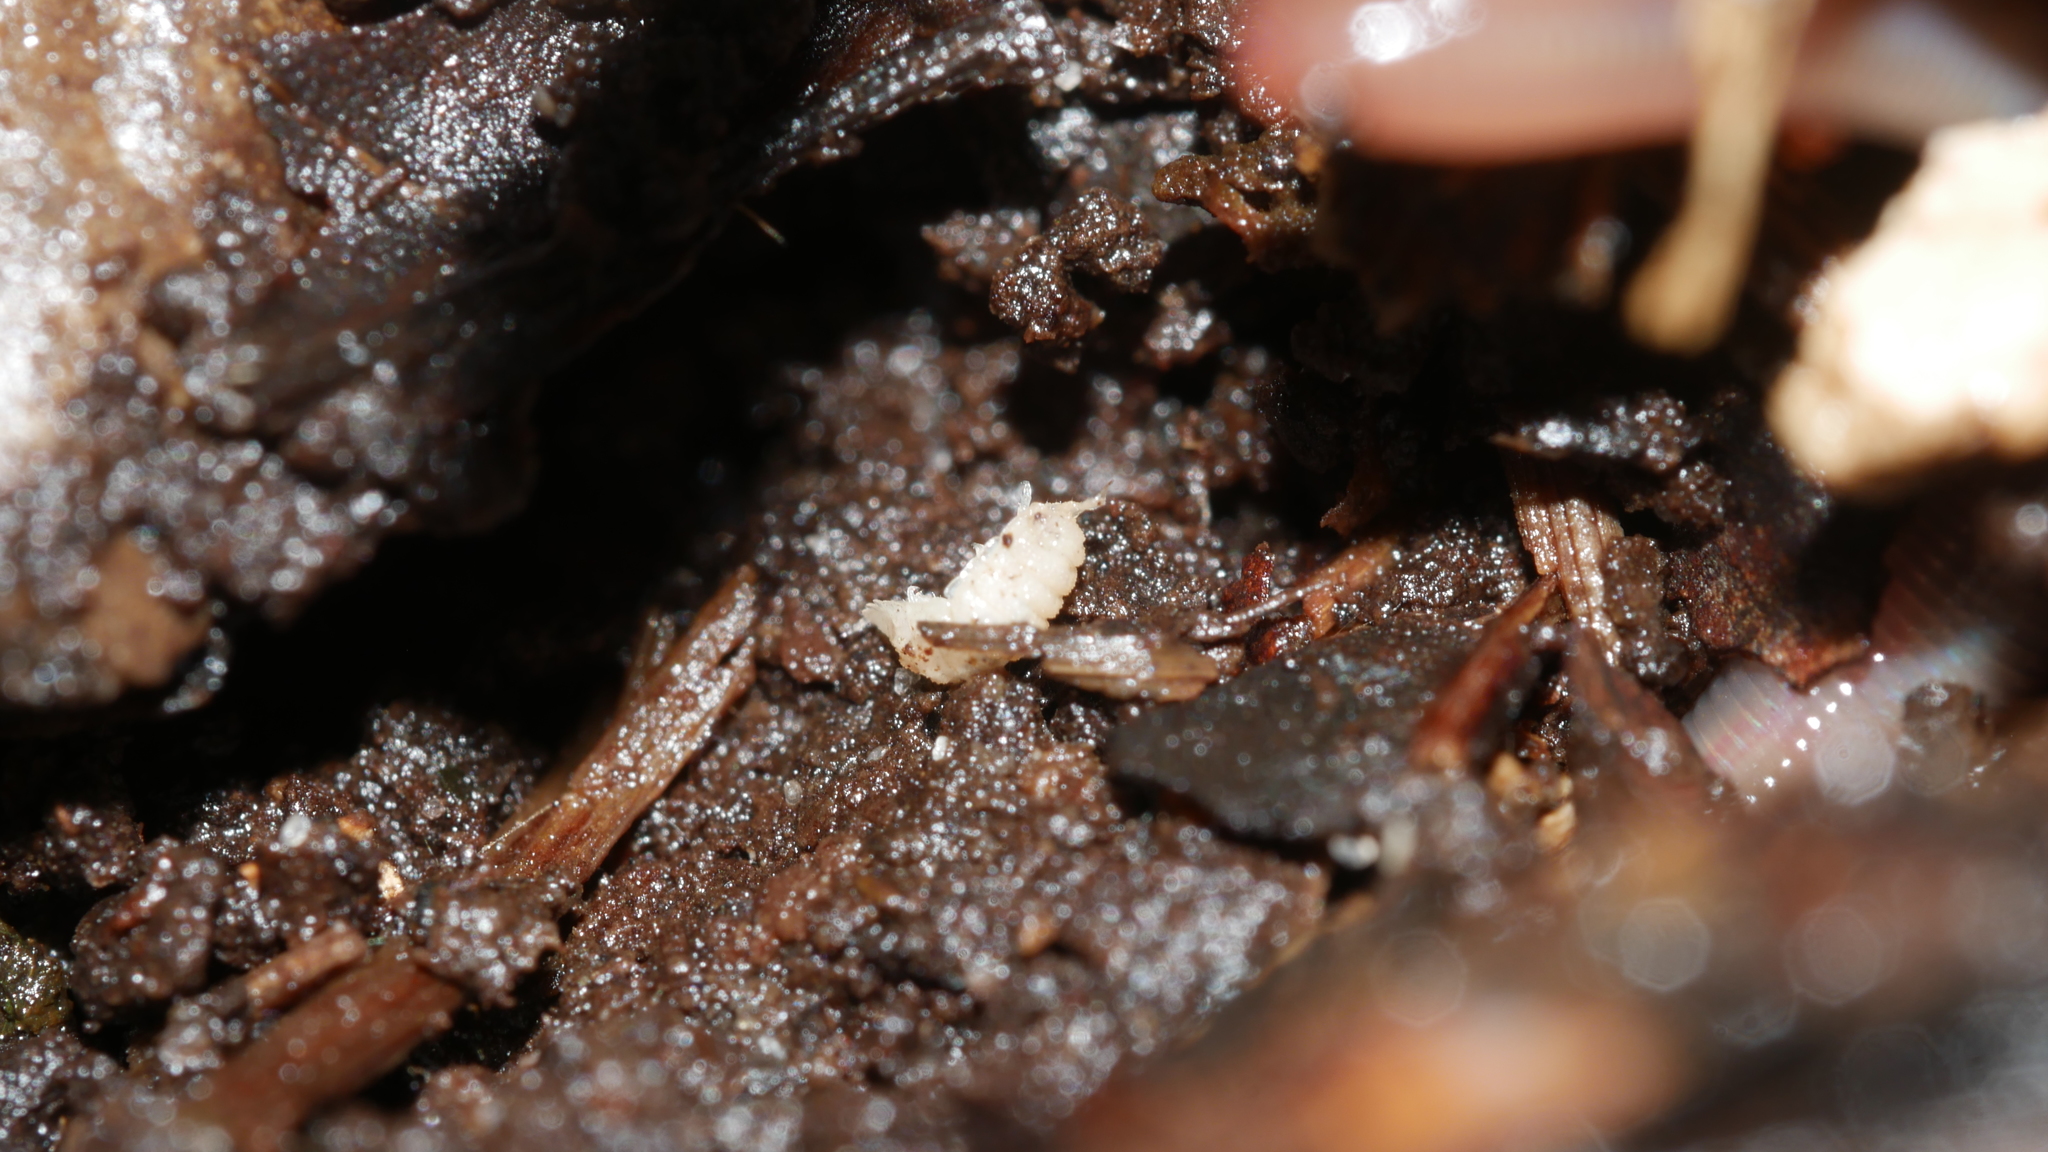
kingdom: Animalia
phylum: Arthropoda
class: Malacostraca
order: Isopoda
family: Trichoniscidae
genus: Haplophthalmus
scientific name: Haplophthalmus danicus
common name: Pillbug
